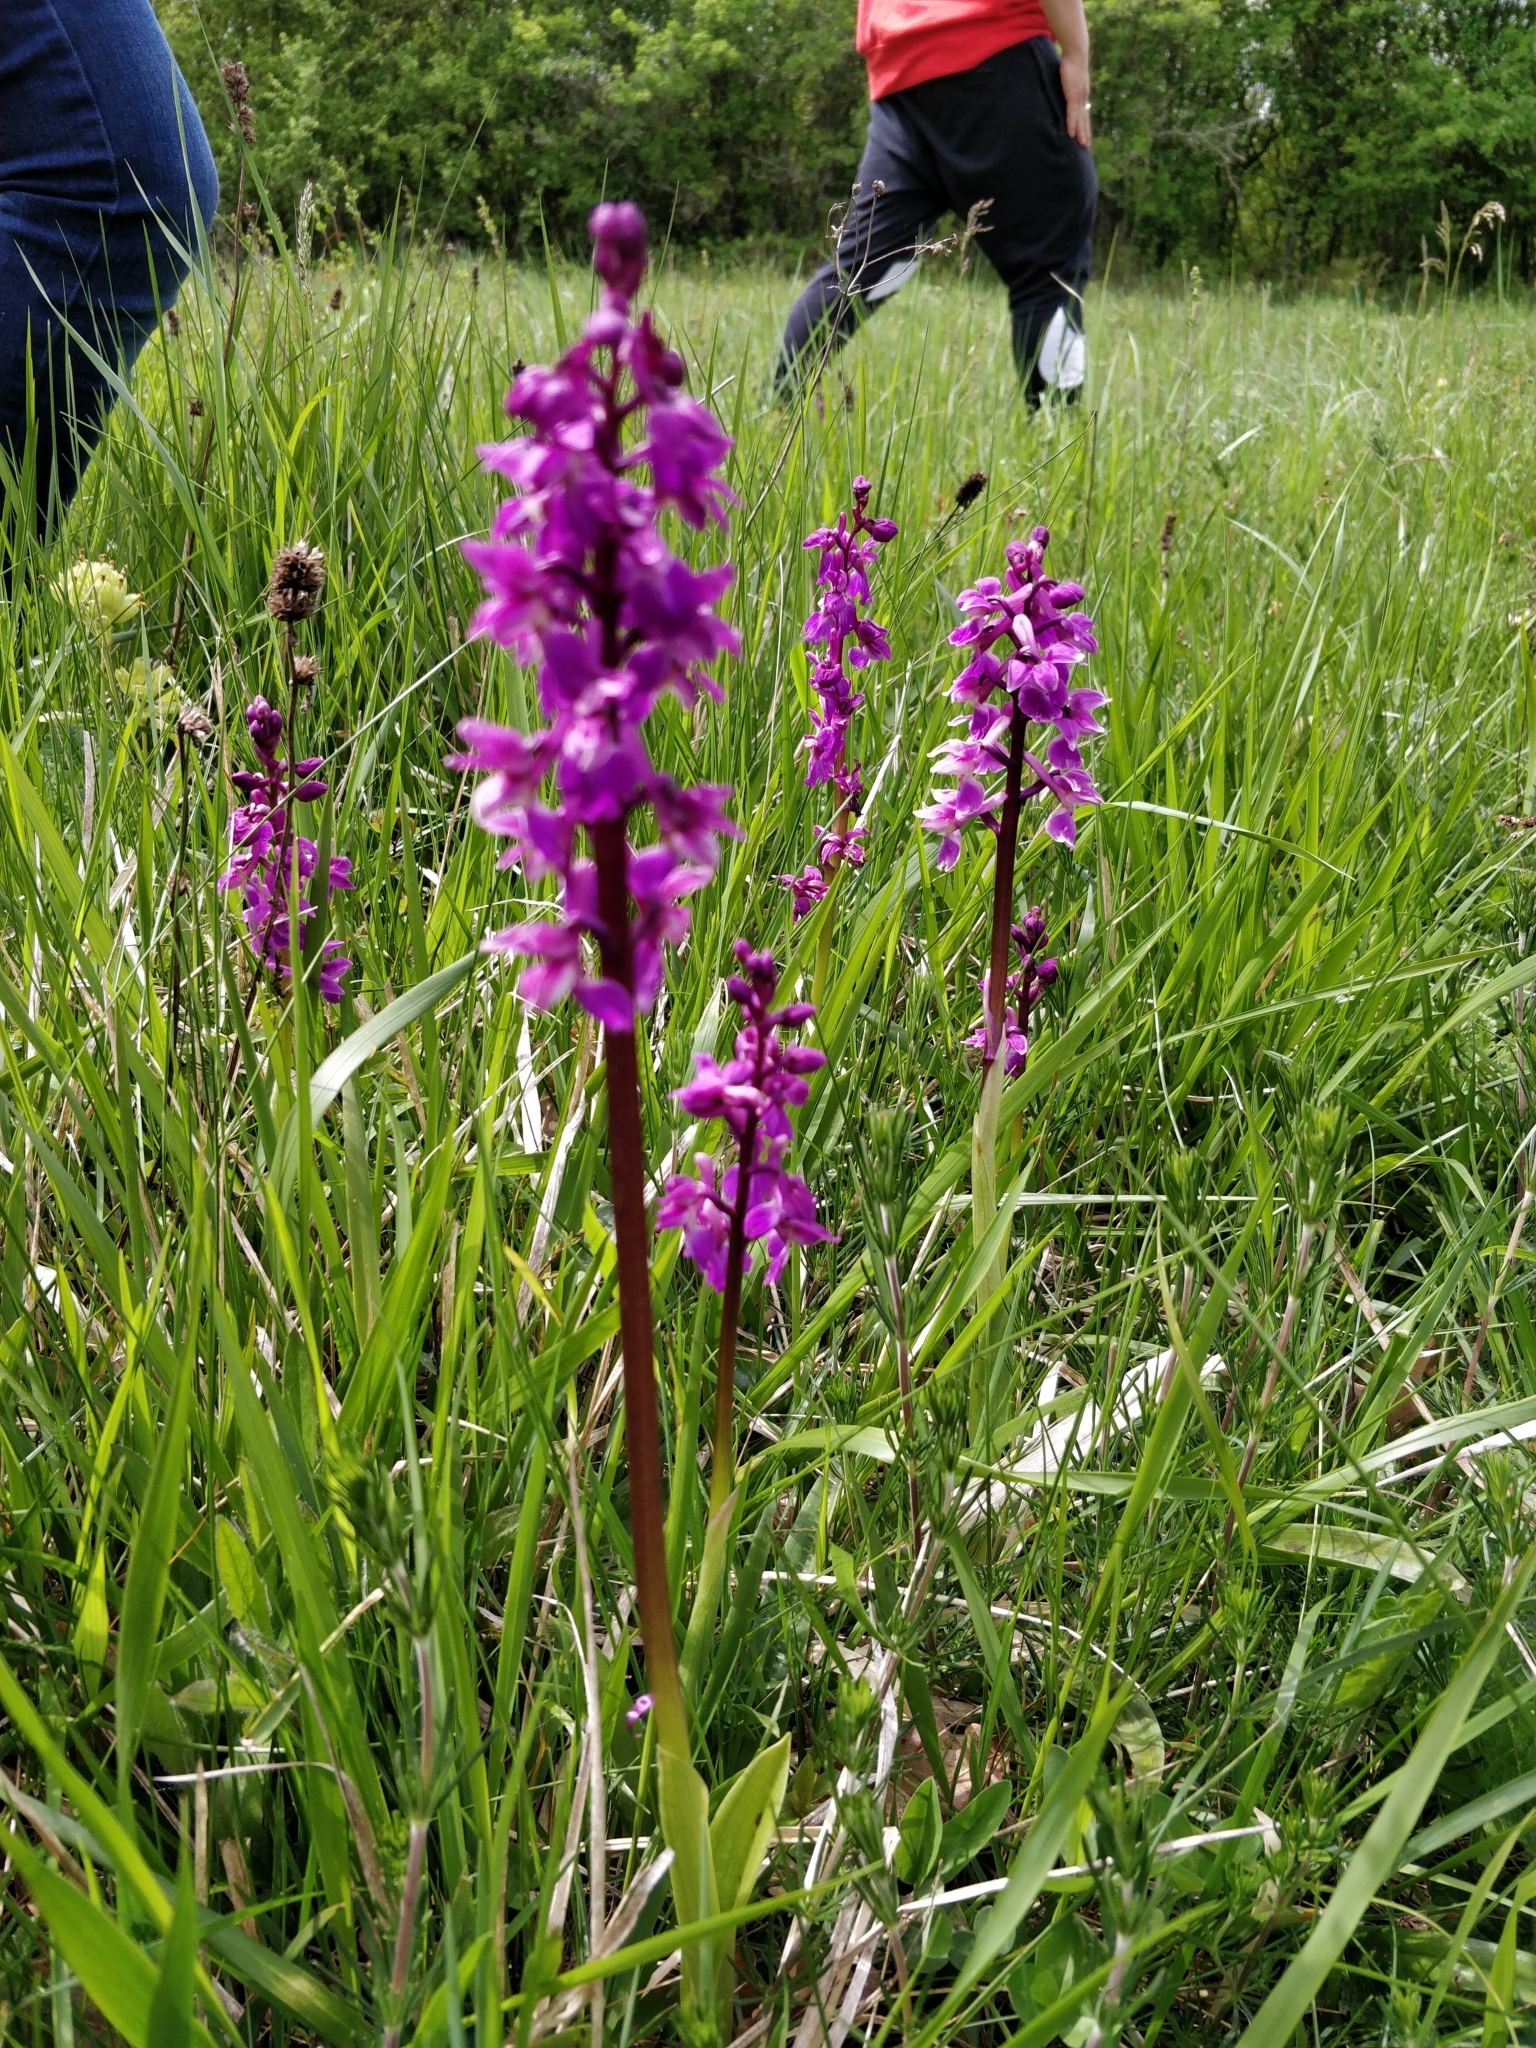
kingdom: Plantae
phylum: Tracheophyta
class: Liliopsida
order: Asparagales
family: Orchidaceae
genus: Orchis
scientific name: Orchis mascula
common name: Early-purple orchid
